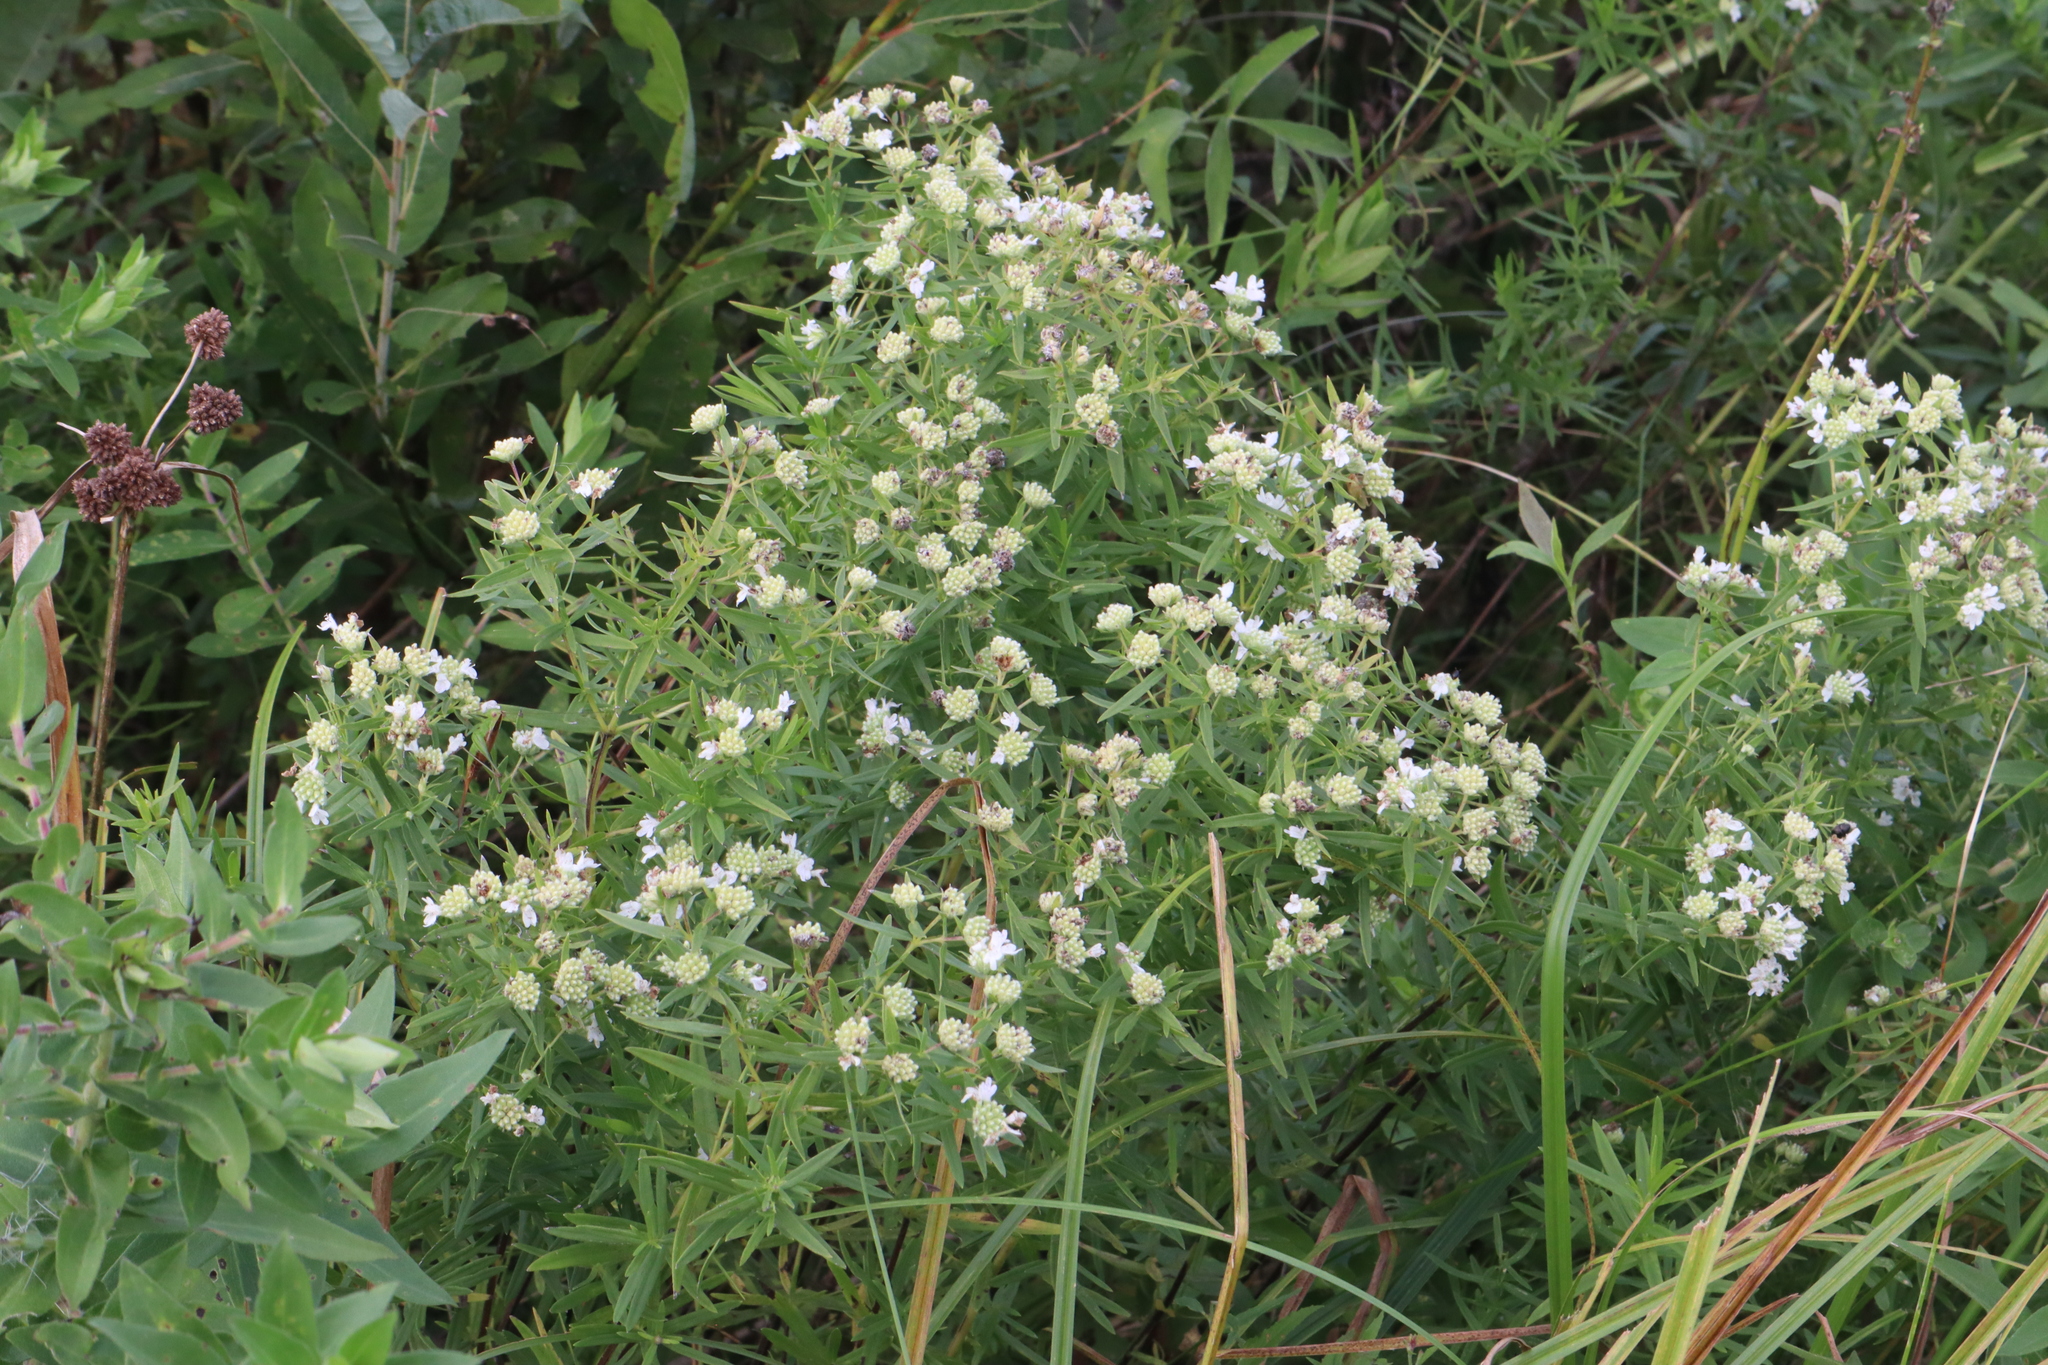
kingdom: Plantae
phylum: Tracheophyta
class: Magnoliopsida
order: Lamiales
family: Lamiaceae
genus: Pycnanthemum
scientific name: Pycnanthemum virginianum
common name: Virginia mountain-mint
